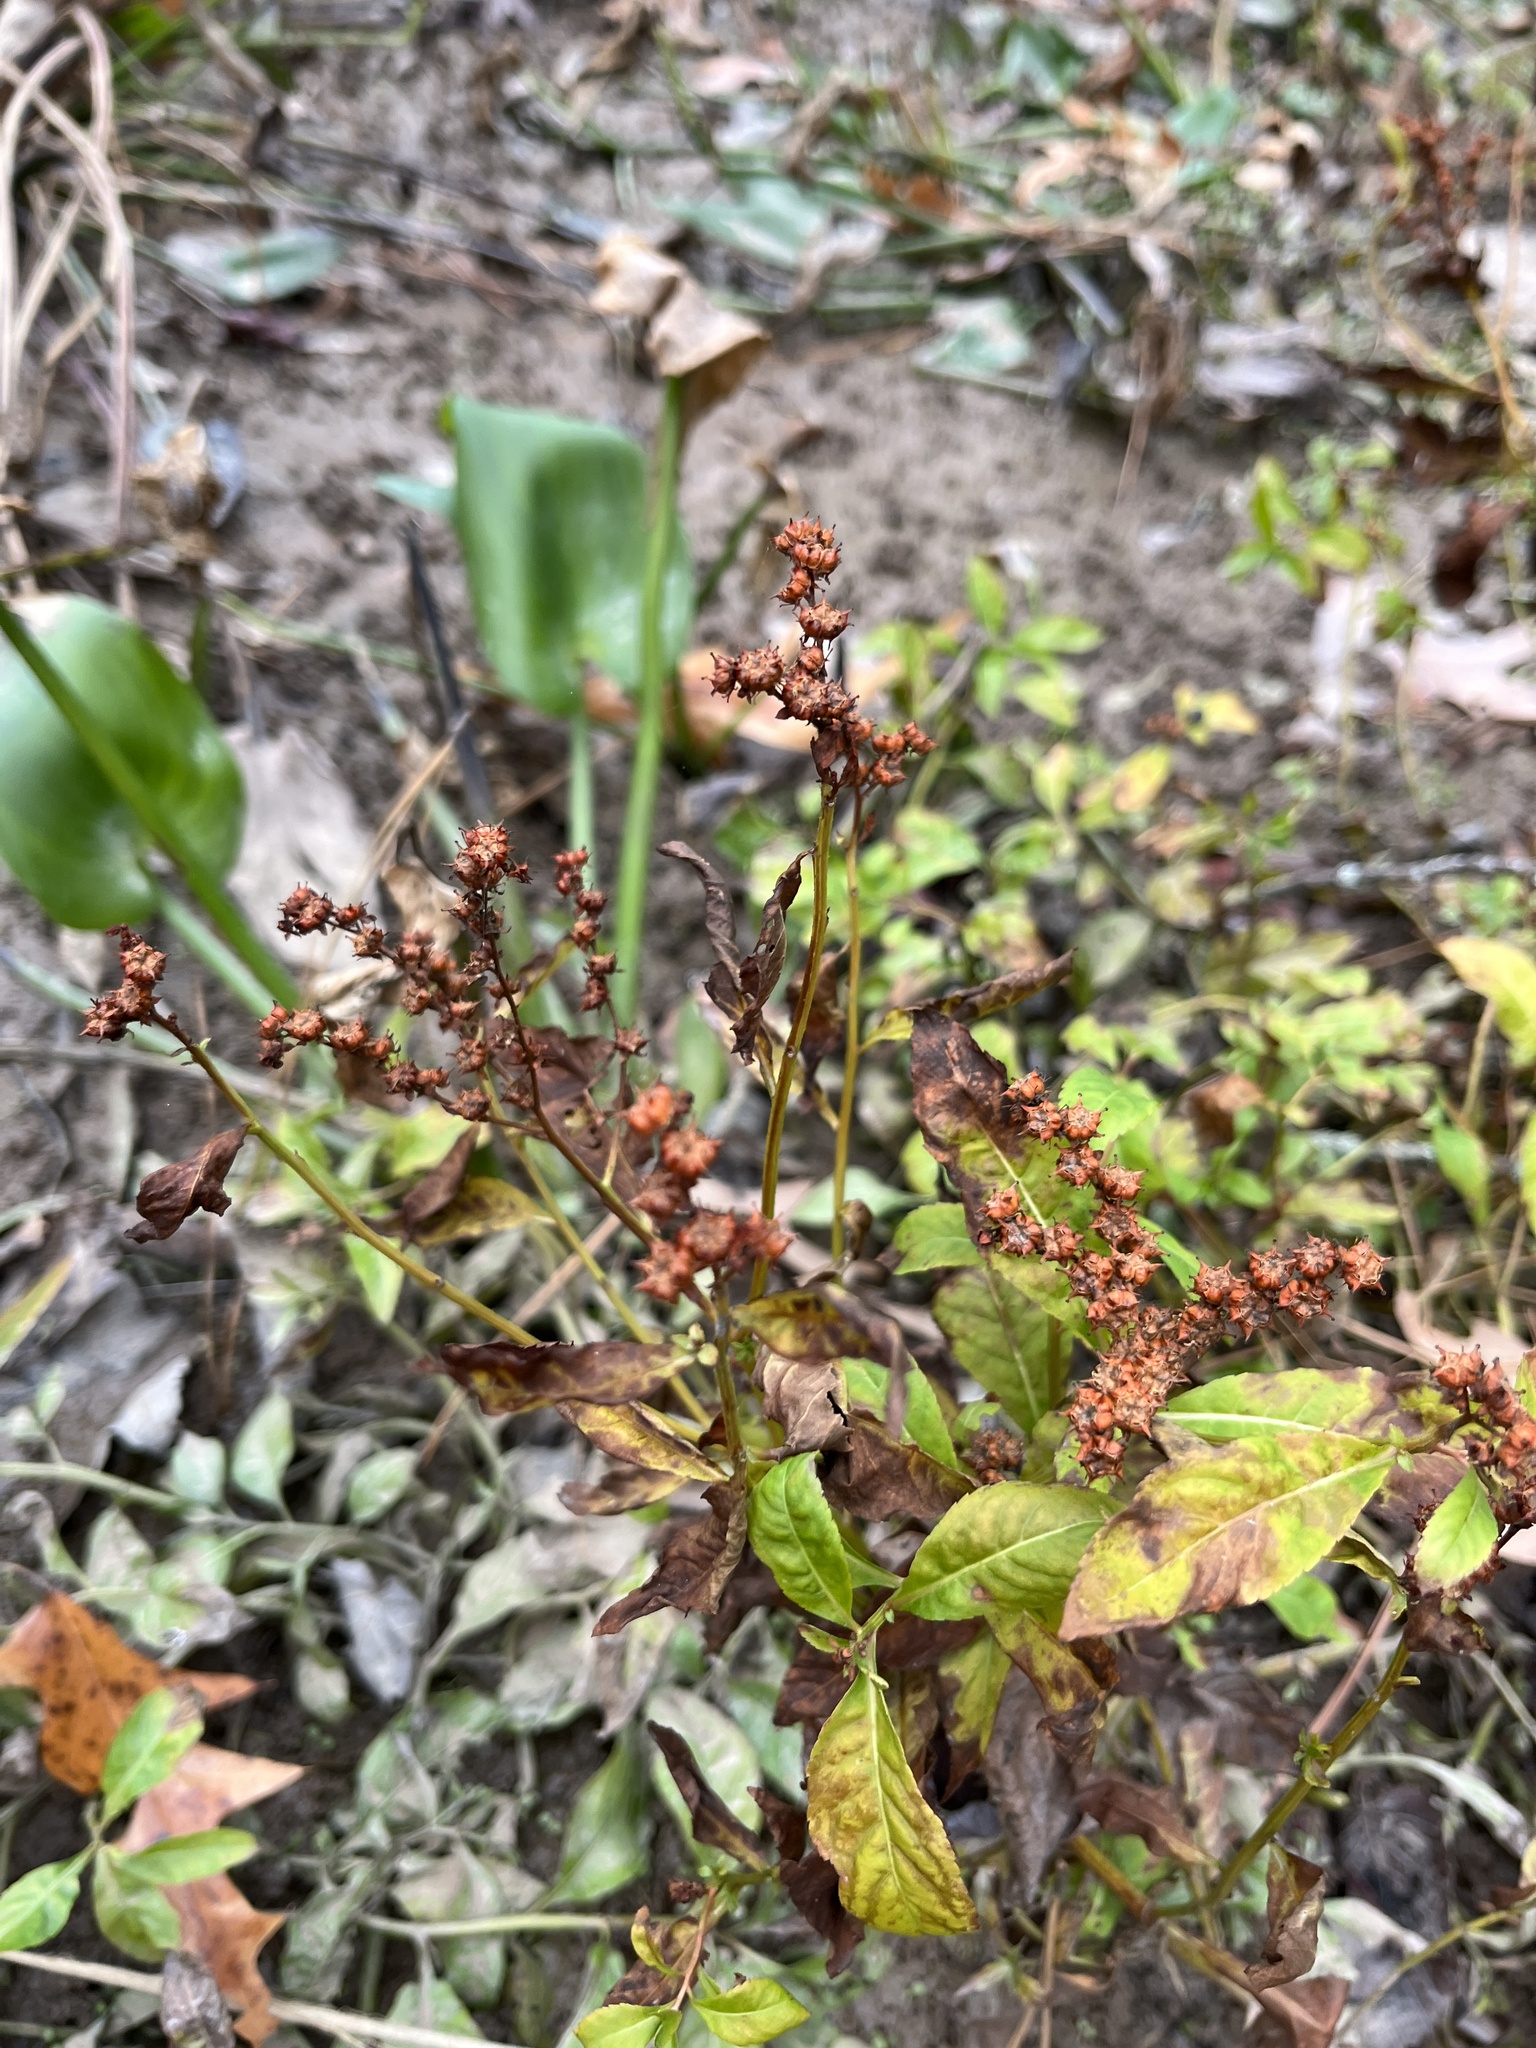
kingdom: Plantae
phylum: Tracheophyta
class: Magnoliopsida
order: Saxifragales
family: Penthoraceae
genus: Penthorum
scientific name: Penthorum sedoides
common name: Ditch stonecrop
